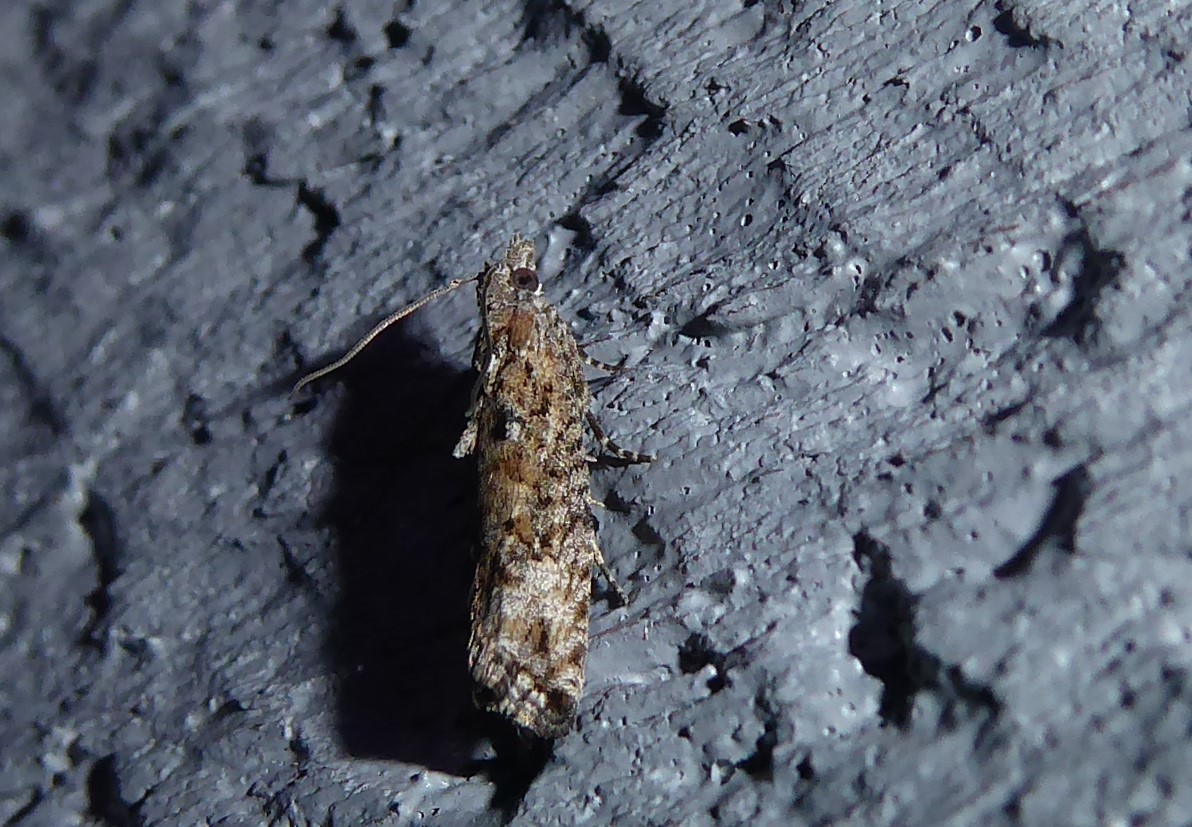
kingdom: Animalia
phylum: Arthropoda
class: Insecta
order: Lepidoptera
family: Tortricidae
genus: Strepsicrates
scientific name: Strepsicrates ejectana
